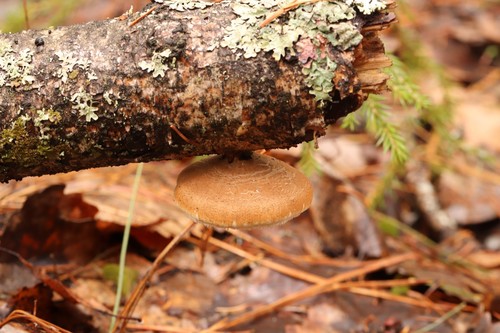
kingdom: Fungi
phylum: Basidiomycota
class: Agaricomycetes
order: Polyporales
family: Fomitopsidaceae
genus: Fomitopsis
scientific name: Fomitopsis betulina
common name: Birch polypore
